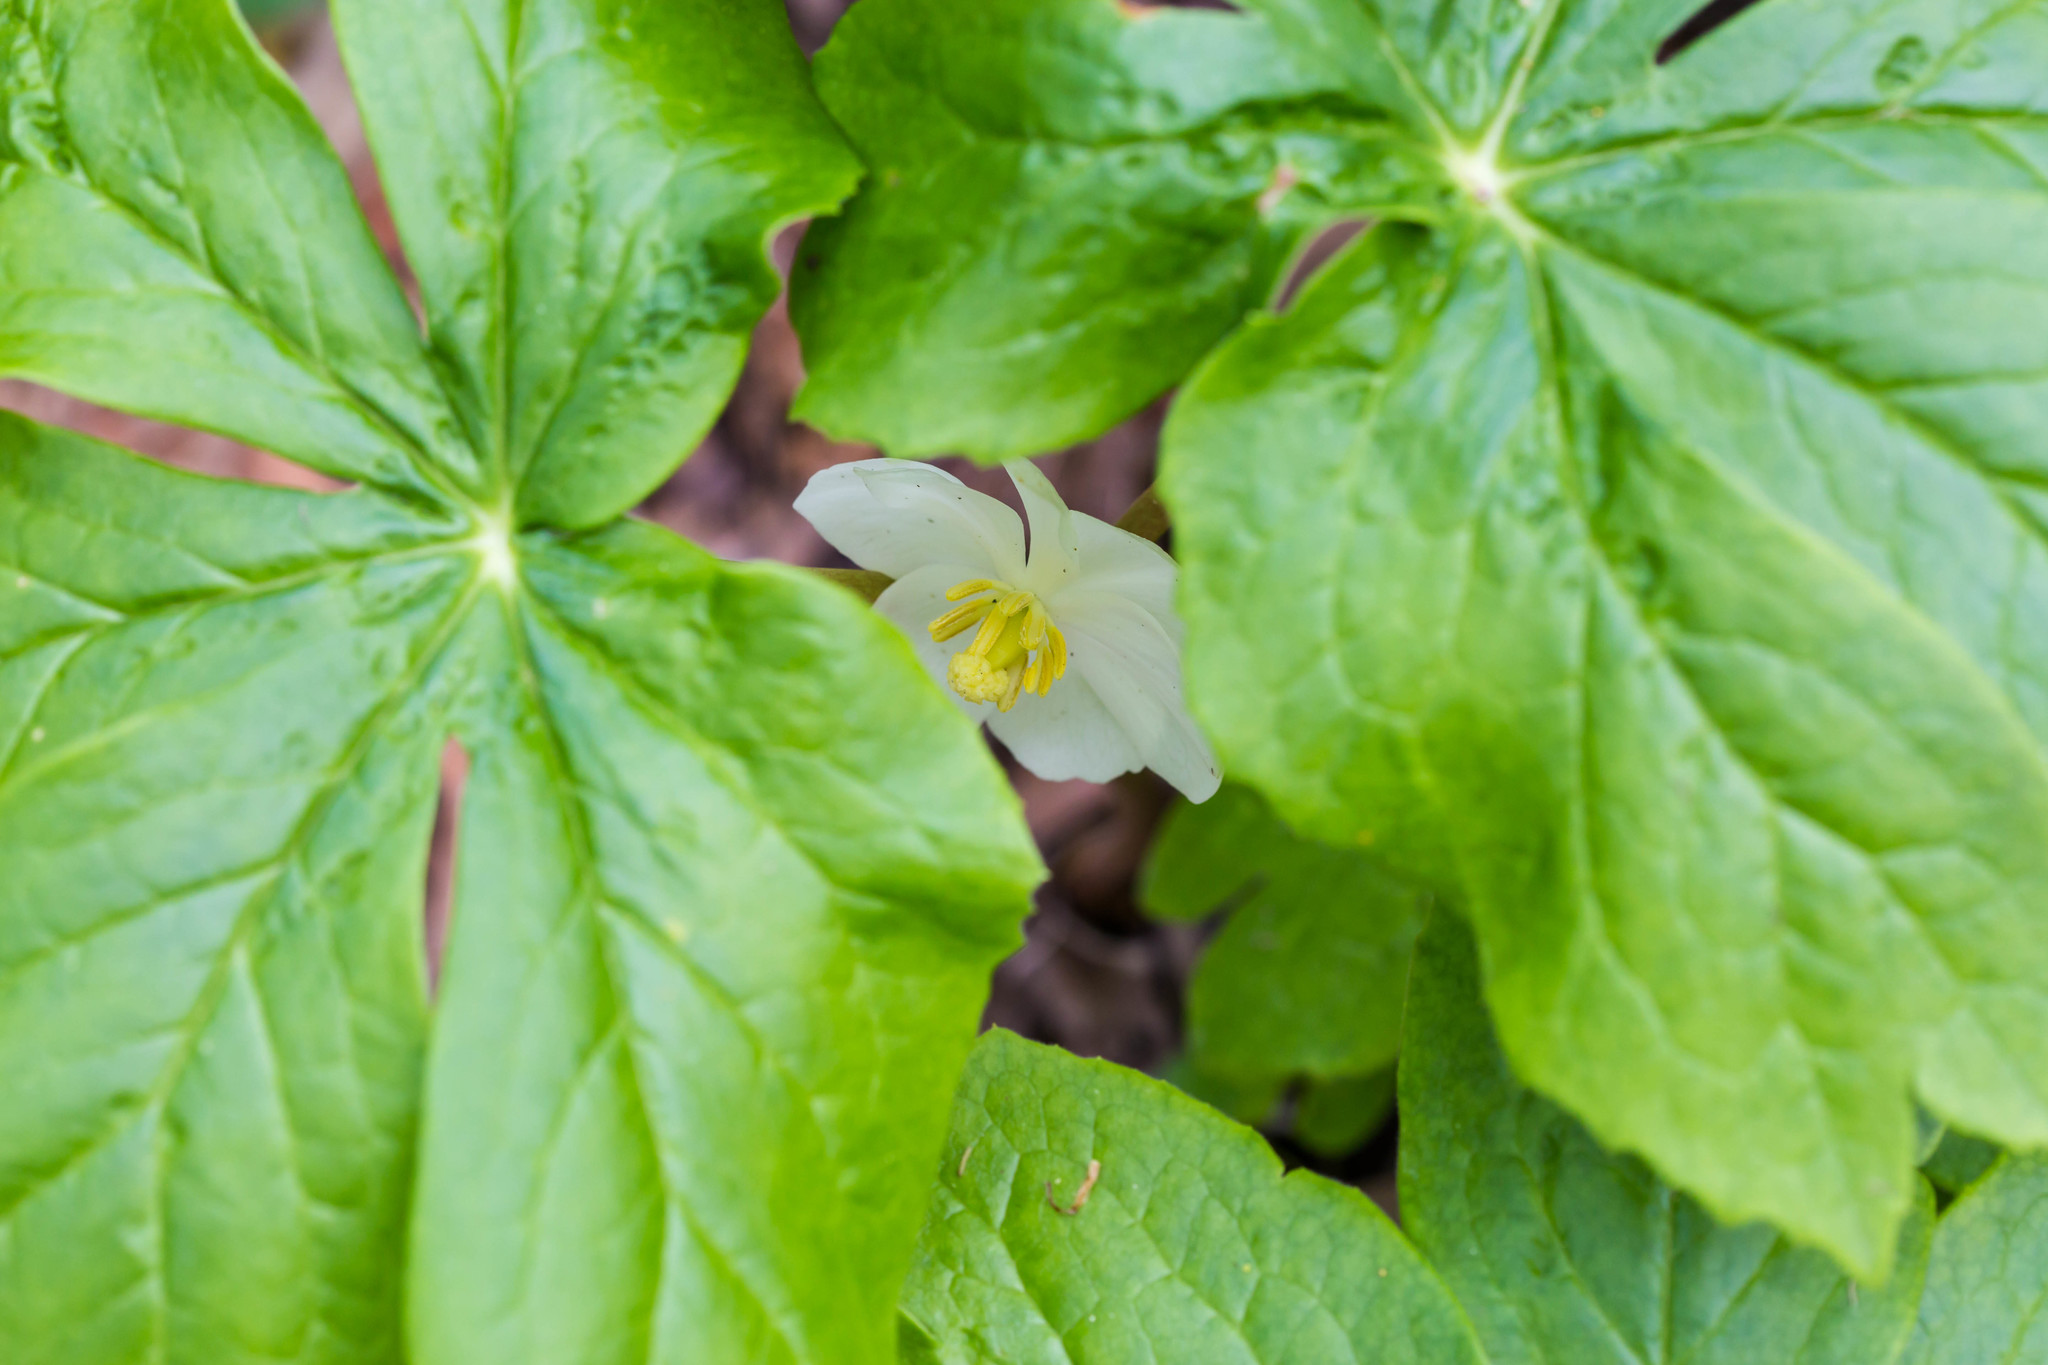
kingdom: Plantae
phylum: Tracheophyta
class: Magnoliopsida
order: Ranunculales
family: Berberidaceae
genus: Podophyllum
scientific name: Podophyllum peltatum
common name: Wild mandrake
